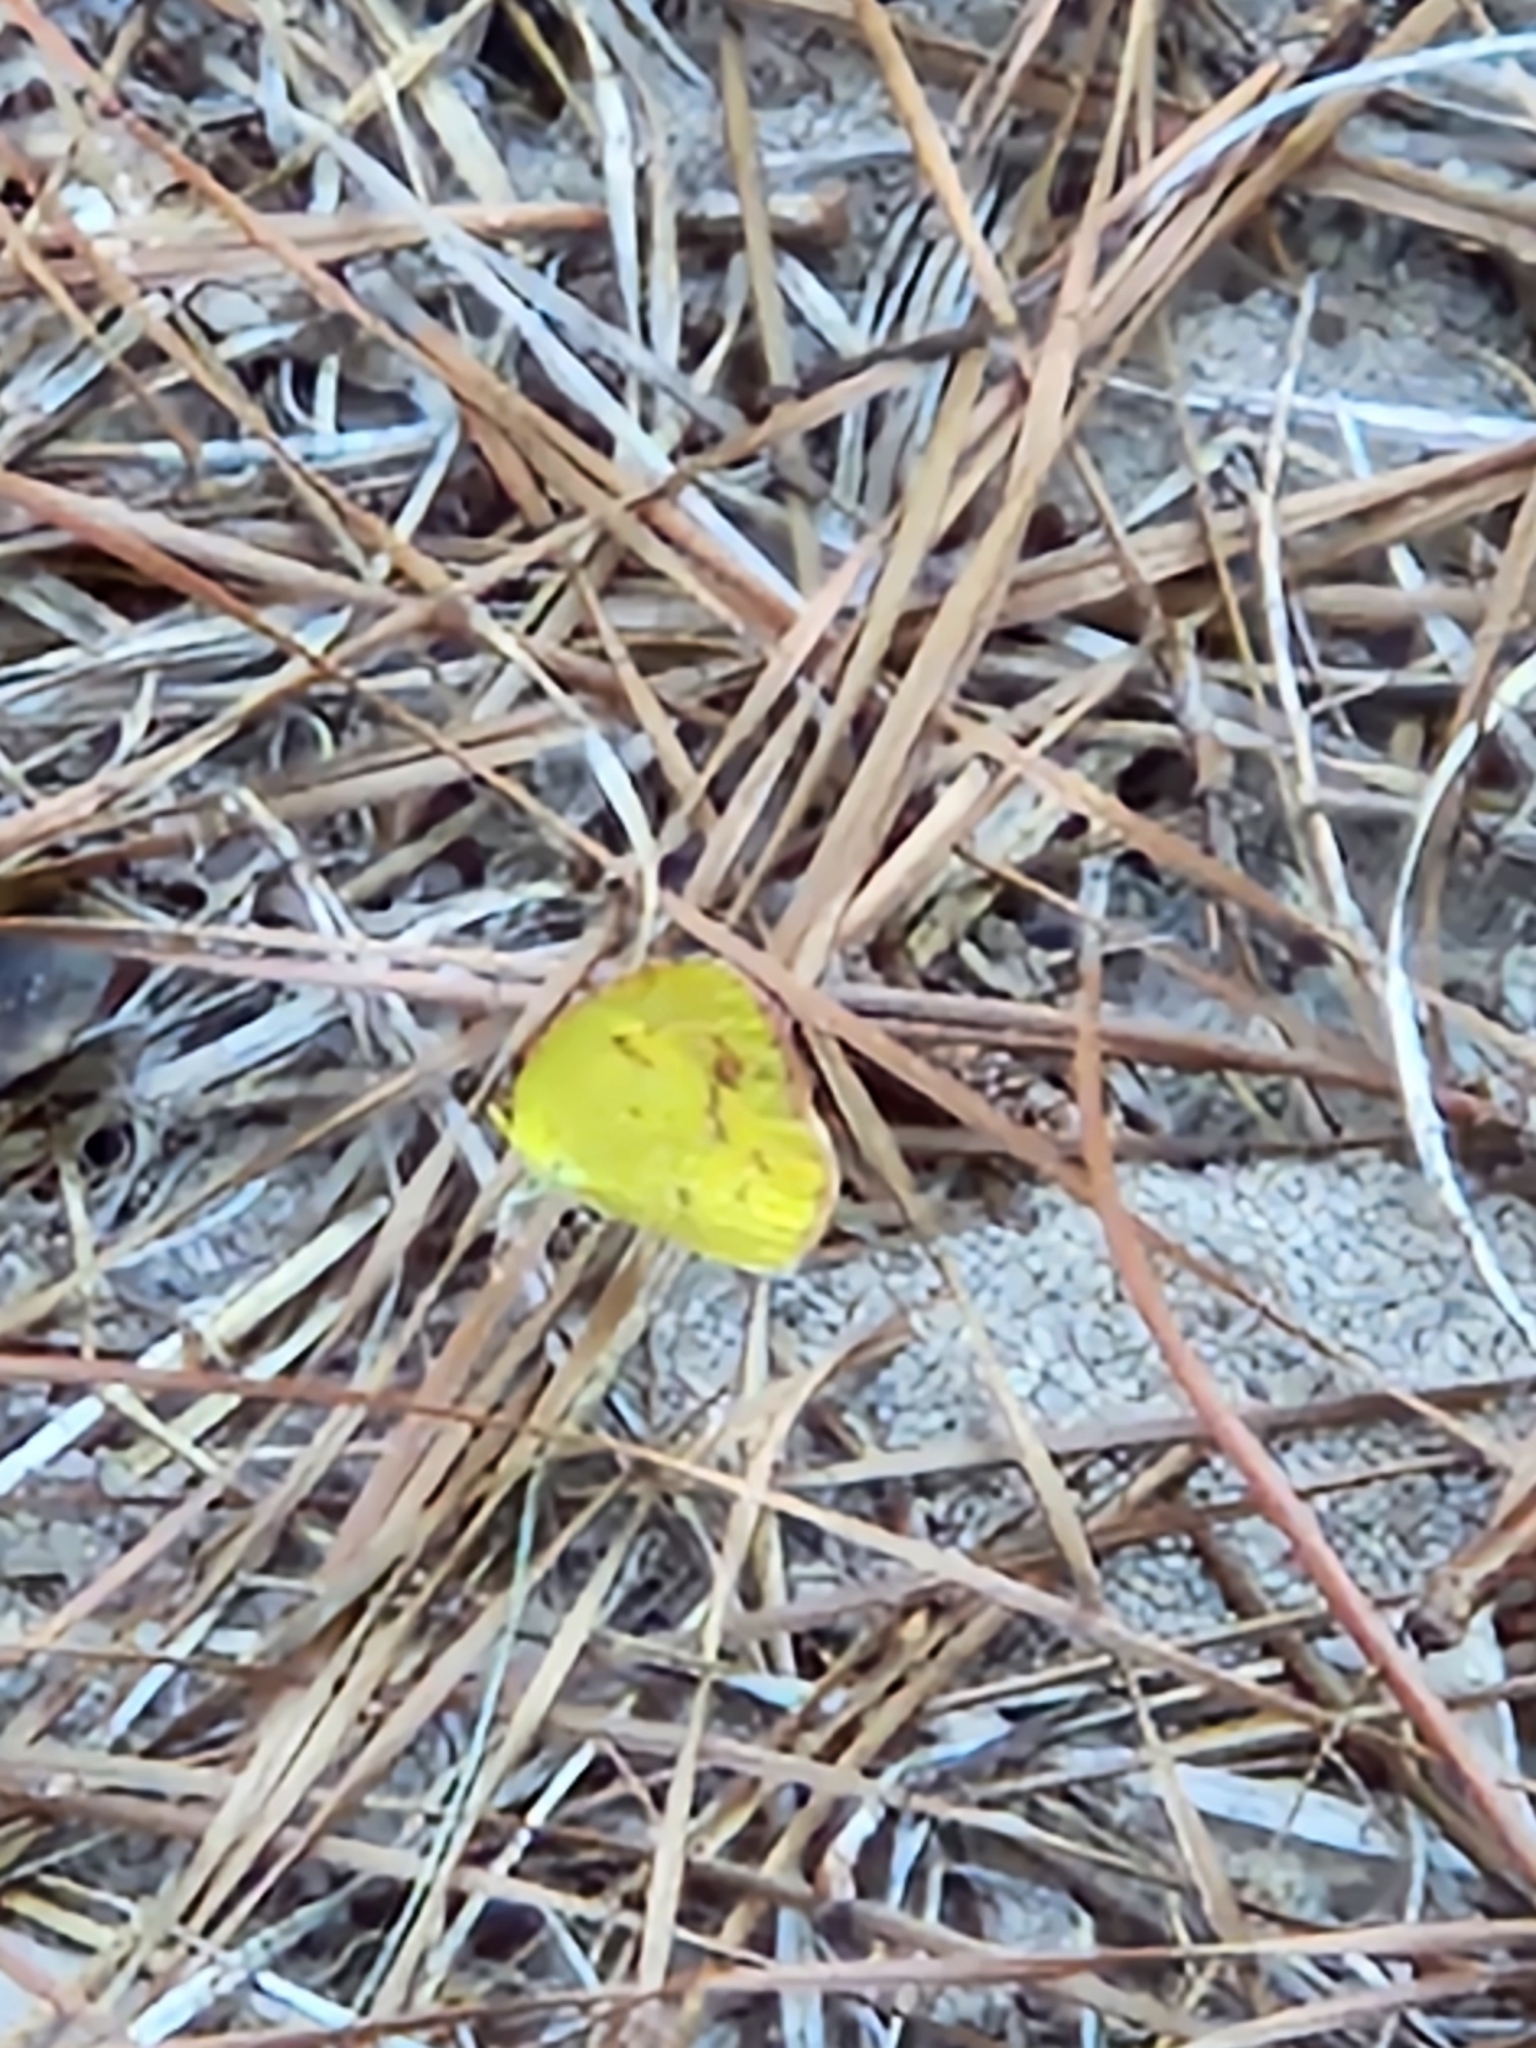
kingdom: Animalia
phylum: Arthropoda
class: Insecta
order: Lepidoptera
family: Pieridae
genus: Pyrisitia
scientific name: Pyrisitia lisa
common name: Little yellow
